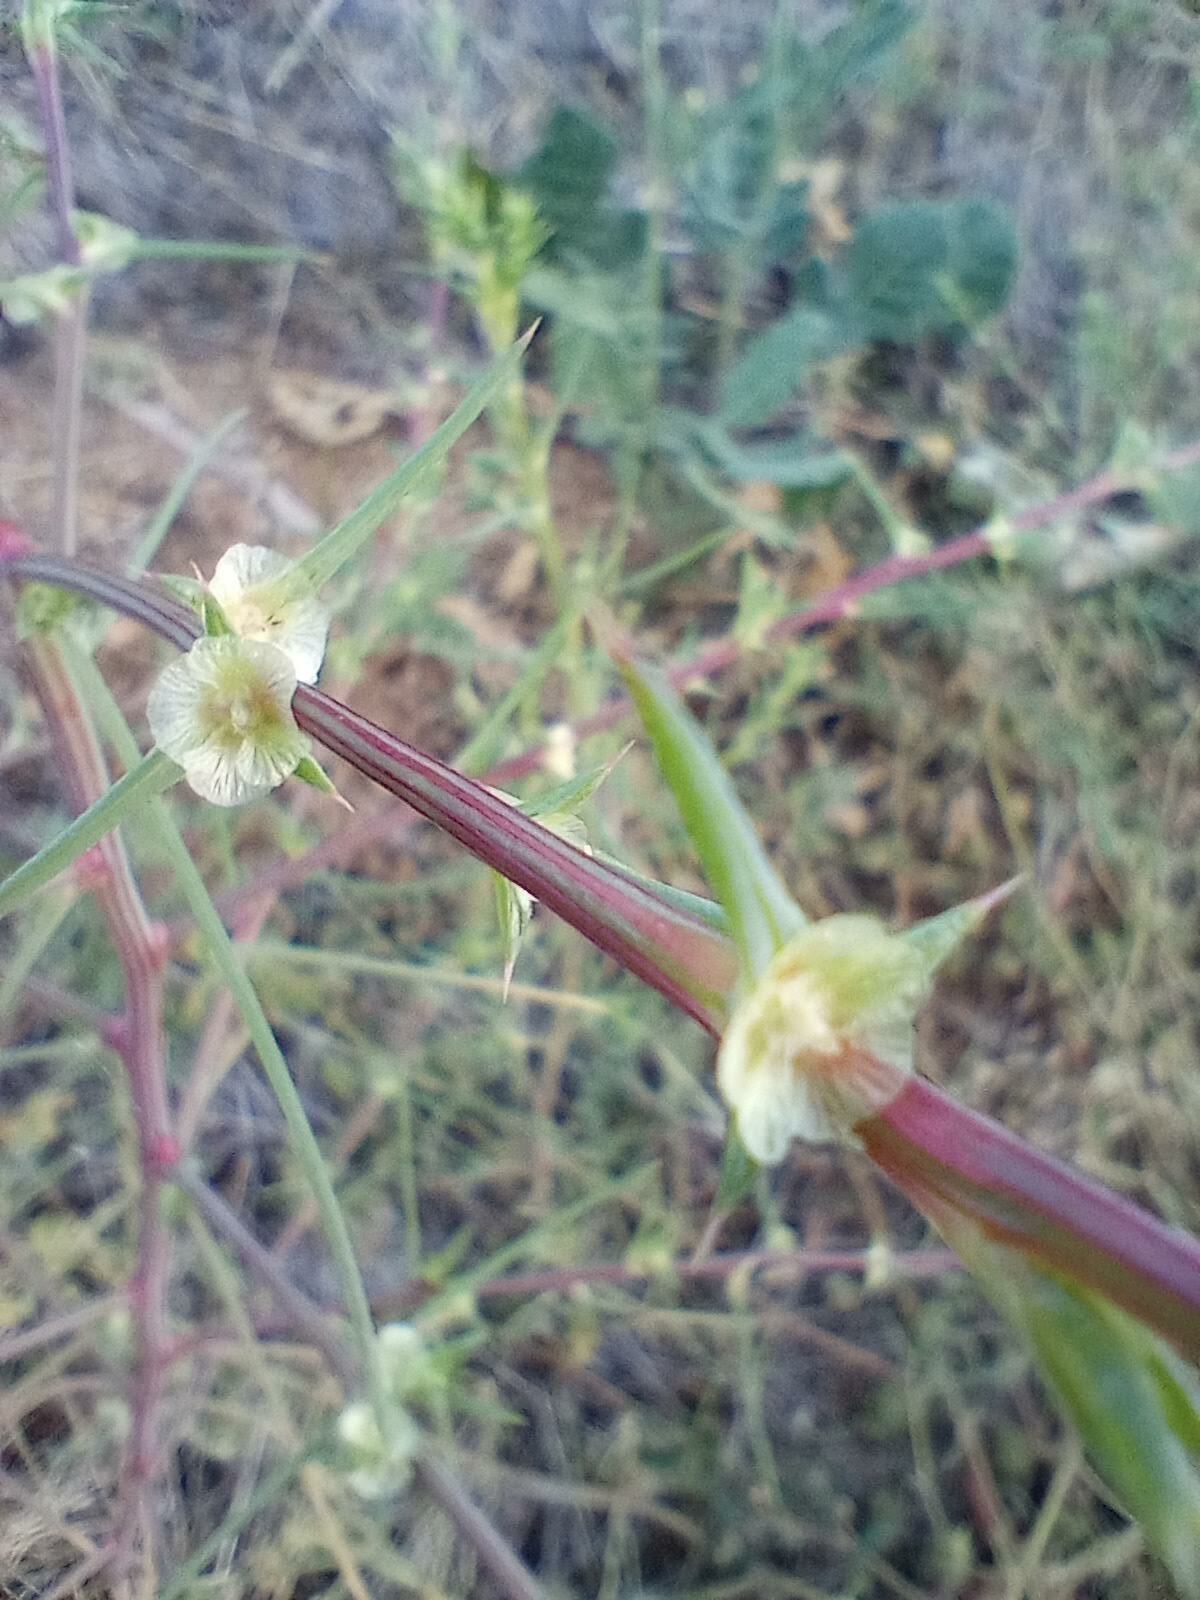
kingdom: Plantae
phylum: Tracheophyta
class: Magnoliopsida
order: Caryophyllales
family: Amaranthaceae
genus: Salsola
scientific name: Salsola australis
